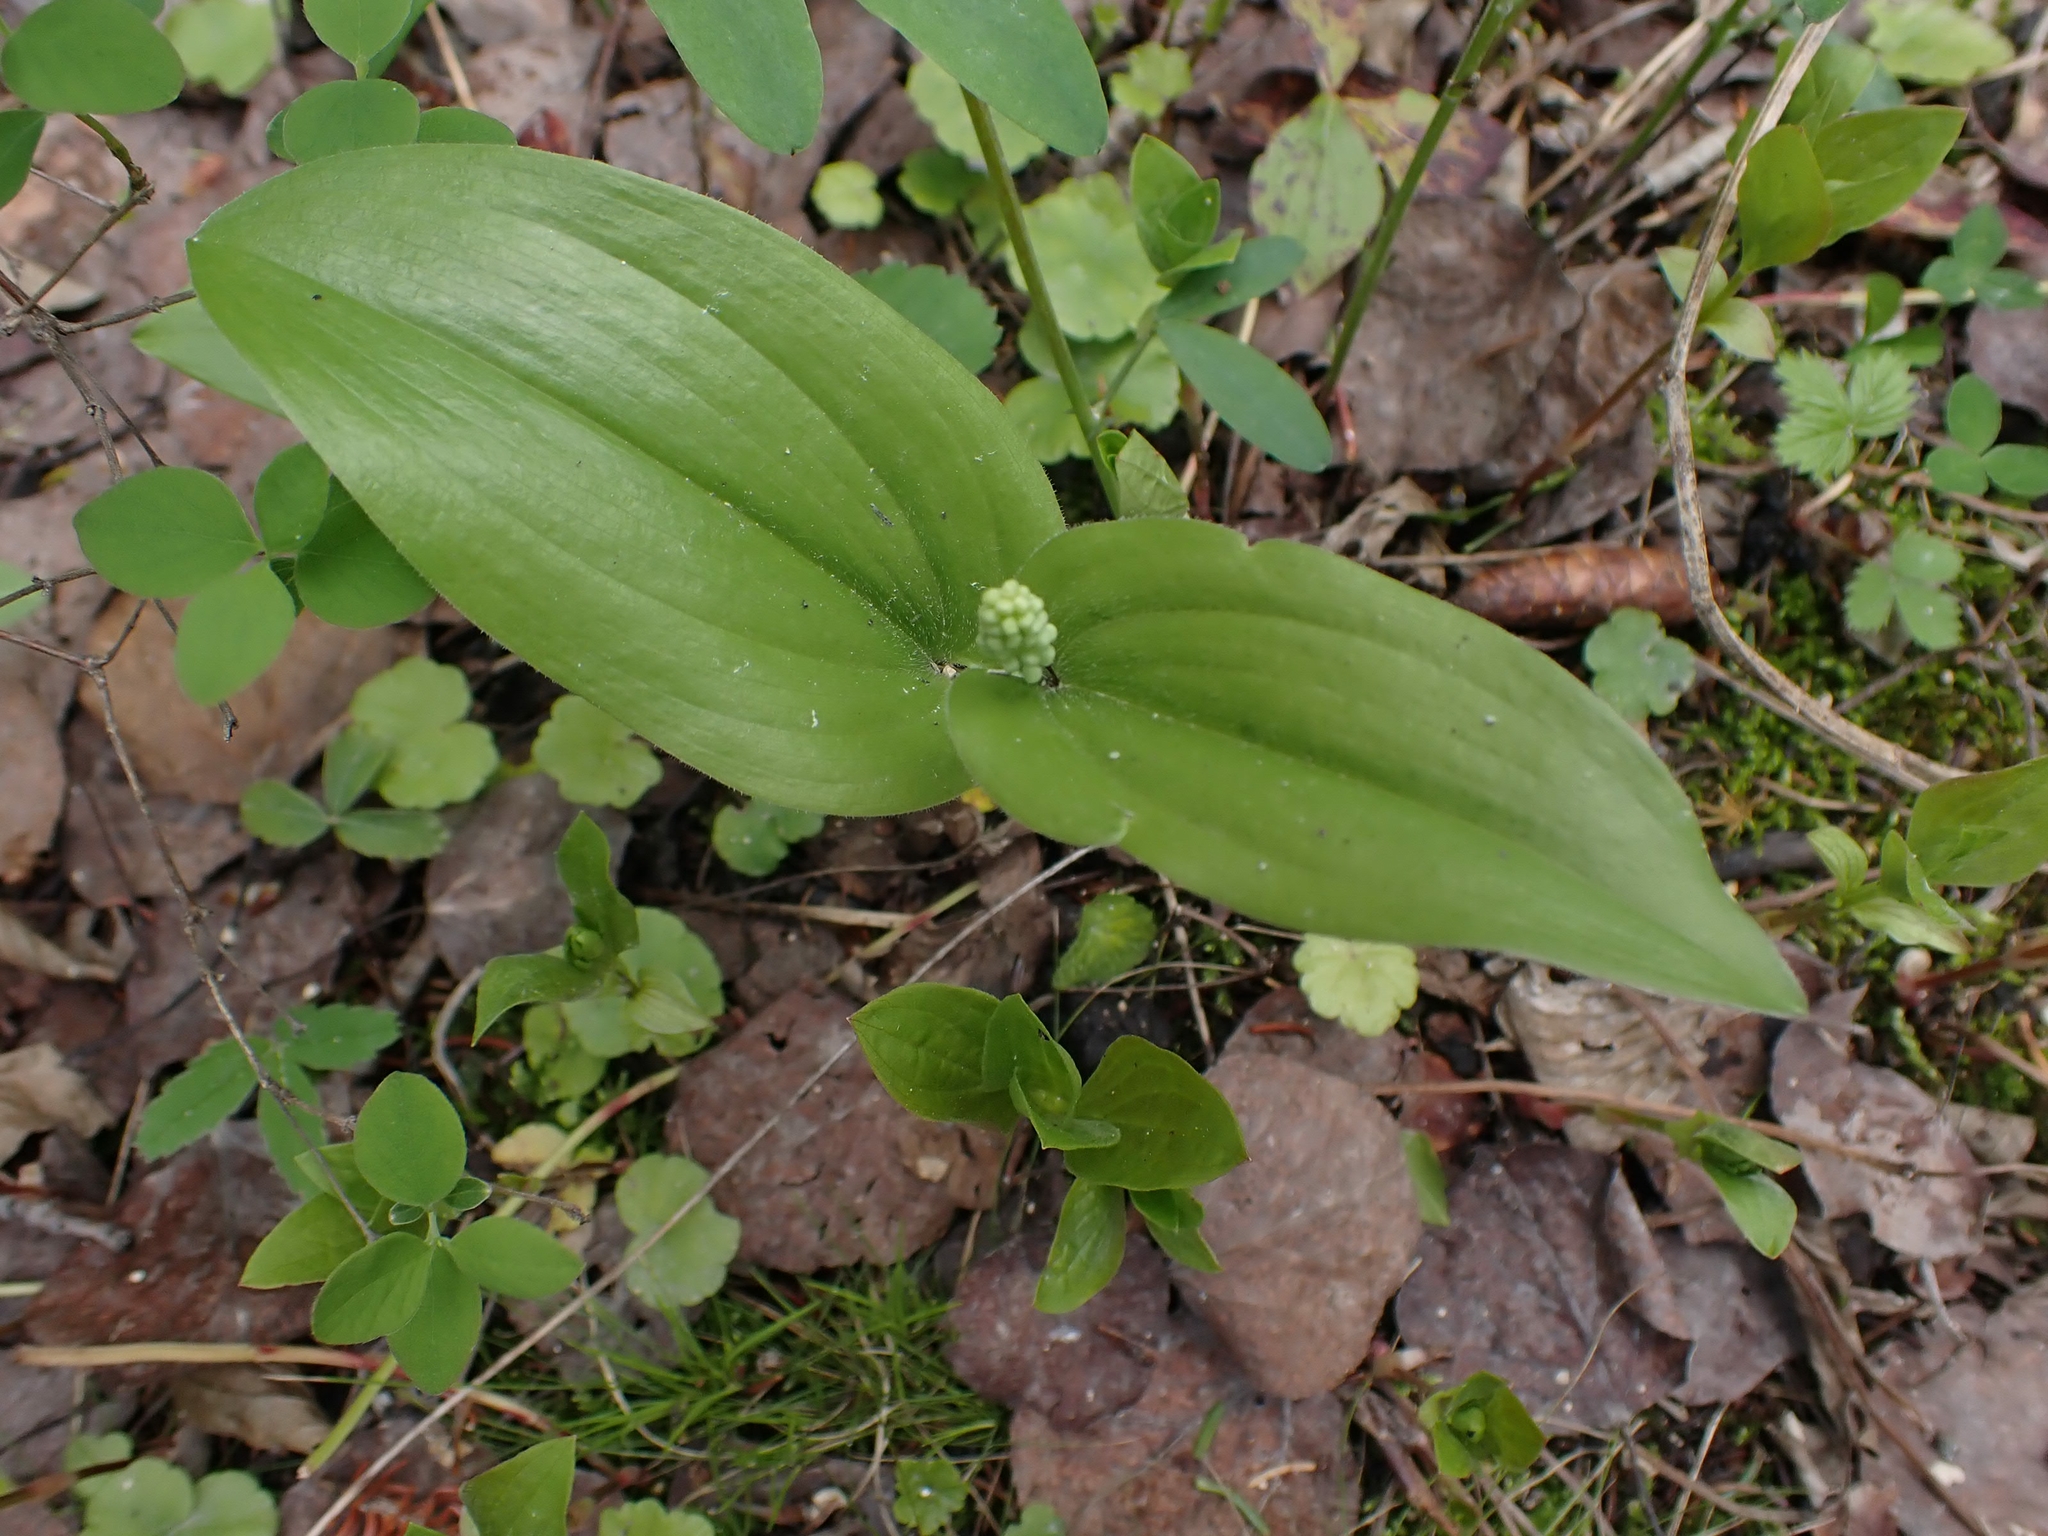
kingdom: Plantae
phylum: Tracheophyta
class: Liliopsida
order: Asparagales
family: Asparagaceae
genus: Maianthemum
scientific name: Maianthemum canadense
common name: False lily-of-the-valley
